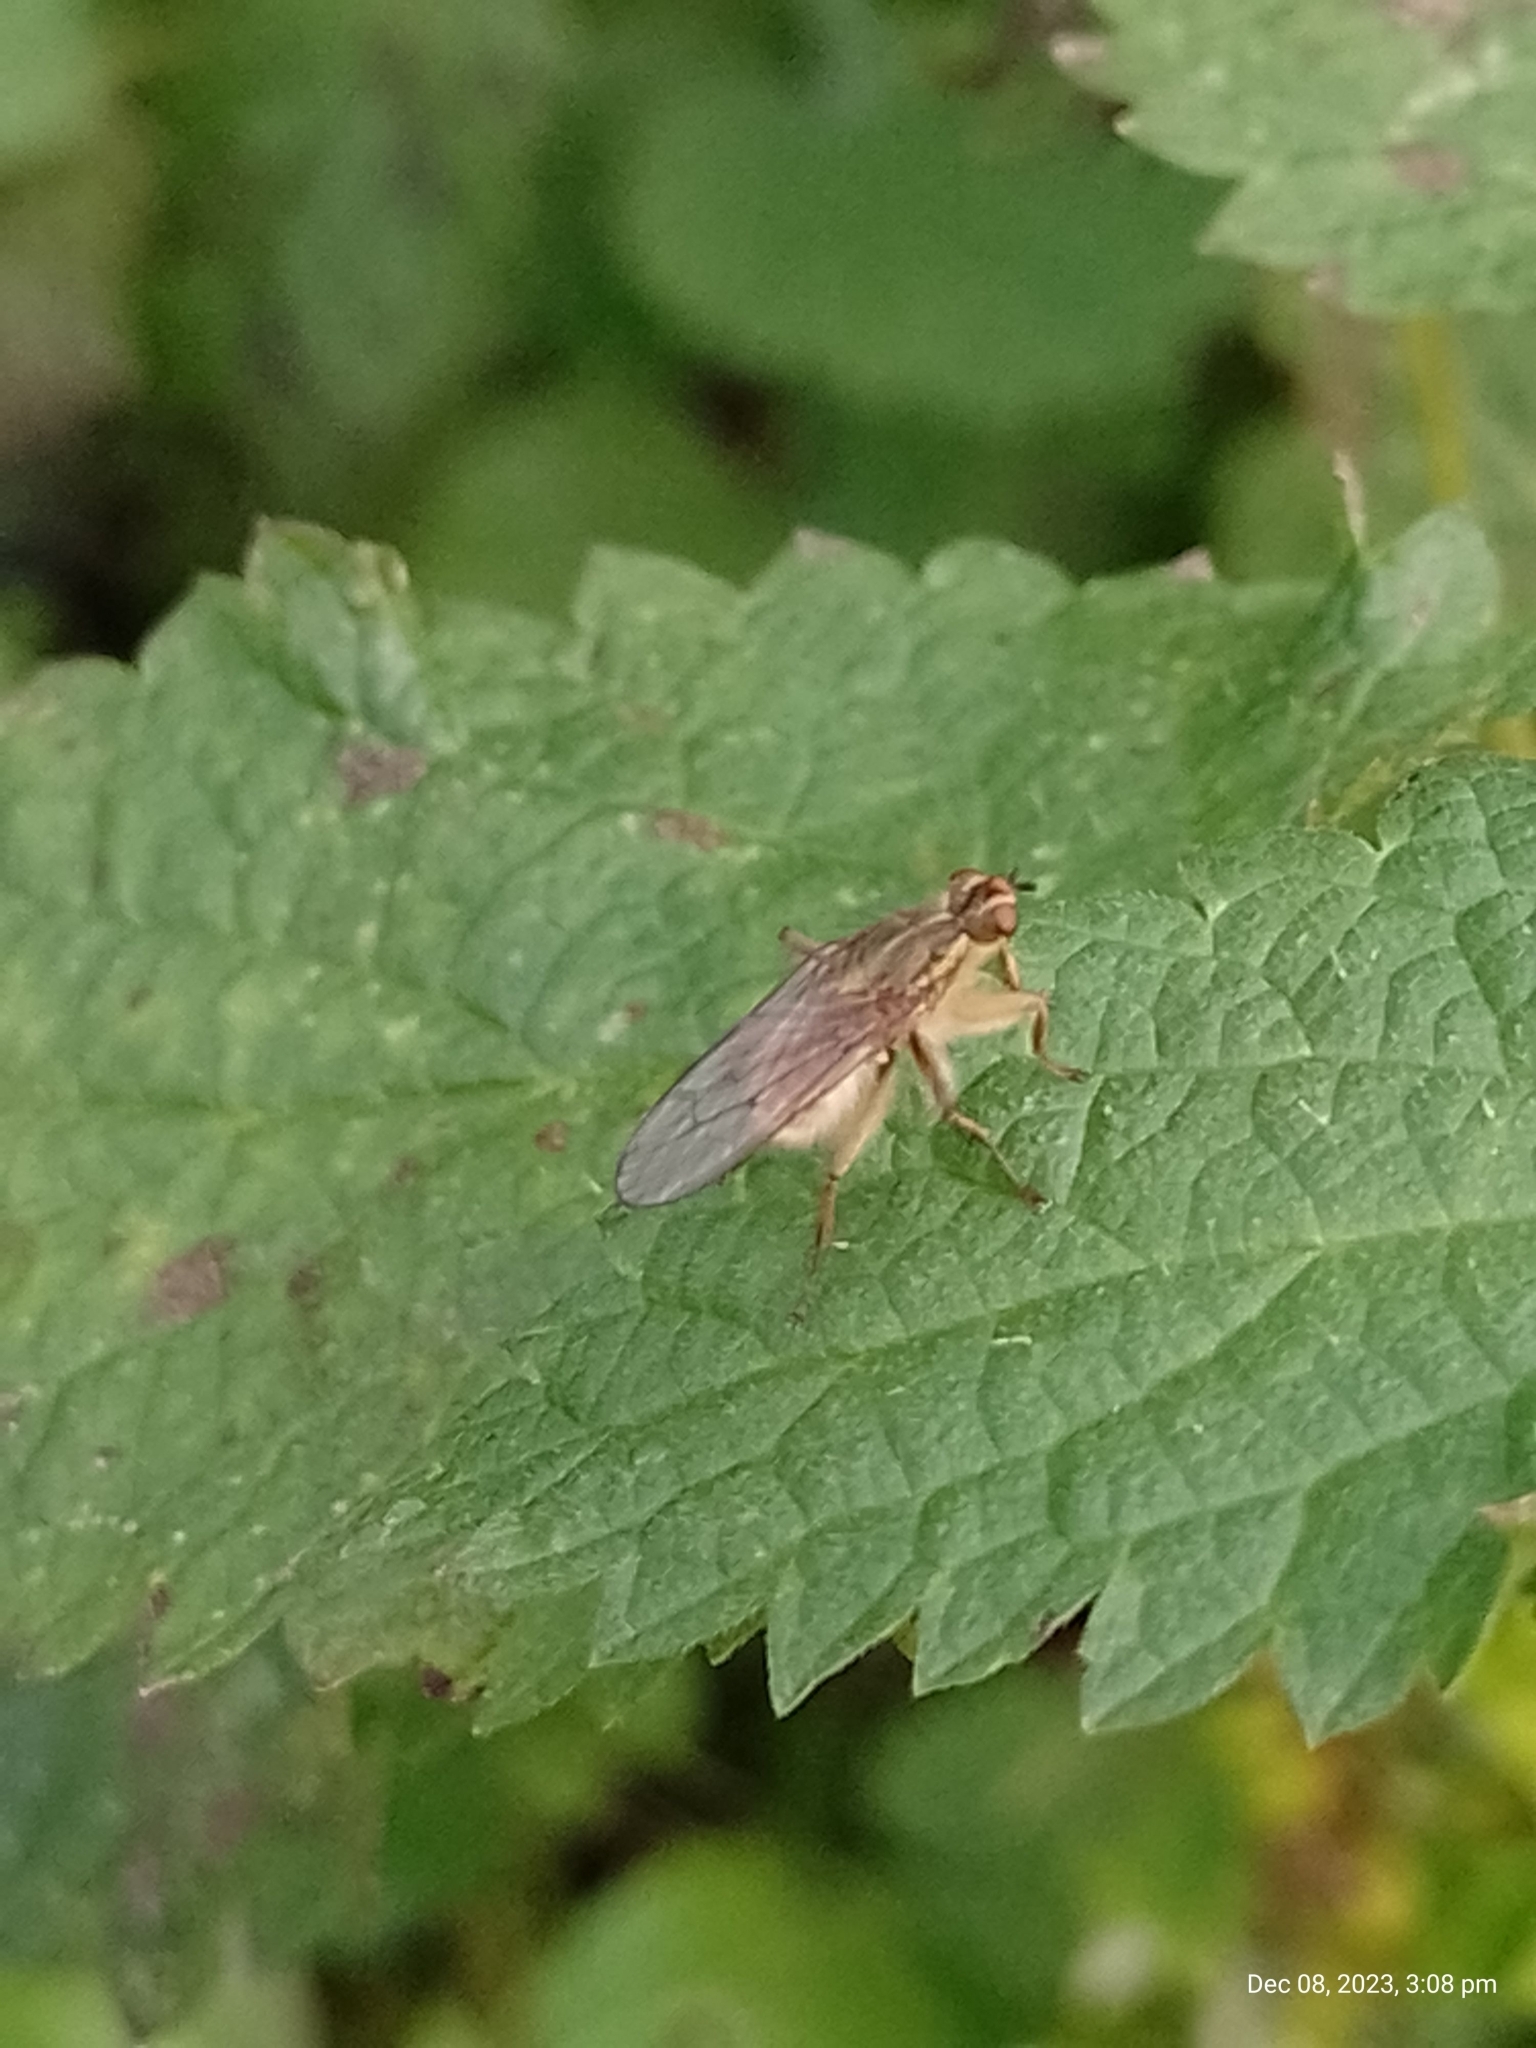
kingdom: Animalia
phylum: Arthropoda
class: Insecta
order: Diptera
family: Scathophagidae
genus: Scathophaga
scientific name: Scathophaga stercoraria
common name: Yellow dung fly
